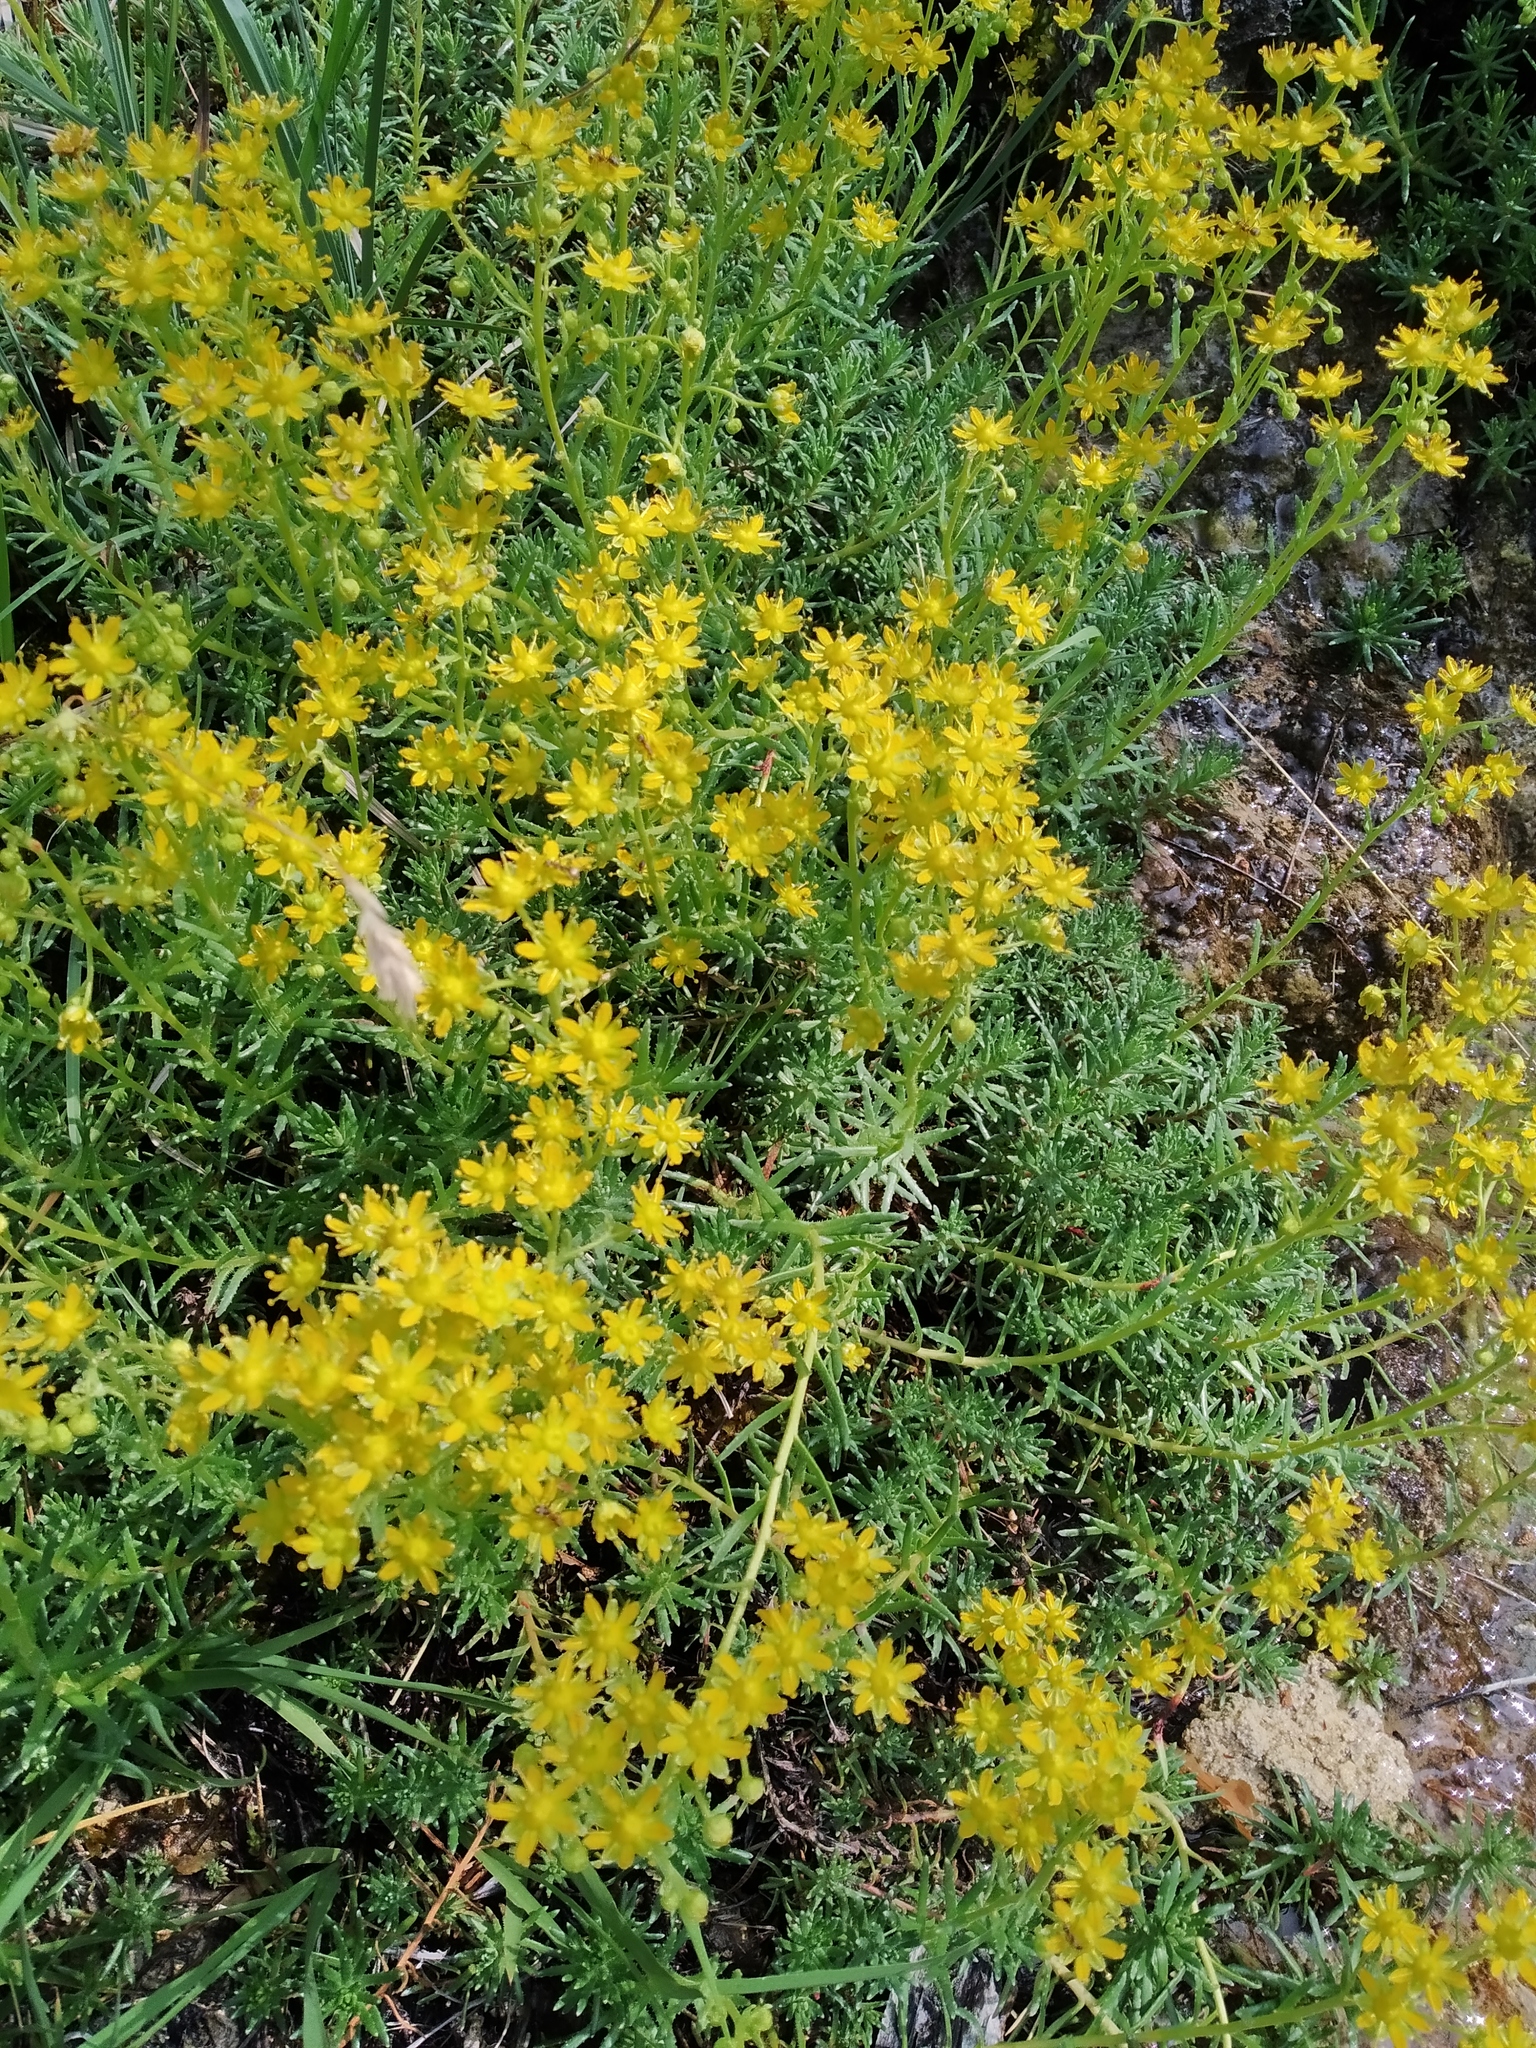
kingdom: Plantae
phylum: Tracheophyta
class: Magnoliopsida
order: Saxifragales
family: Saxifragaceae
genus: Saxifraga
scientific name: Saxifraga aizoides
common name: Yellow mountain saxifrage
